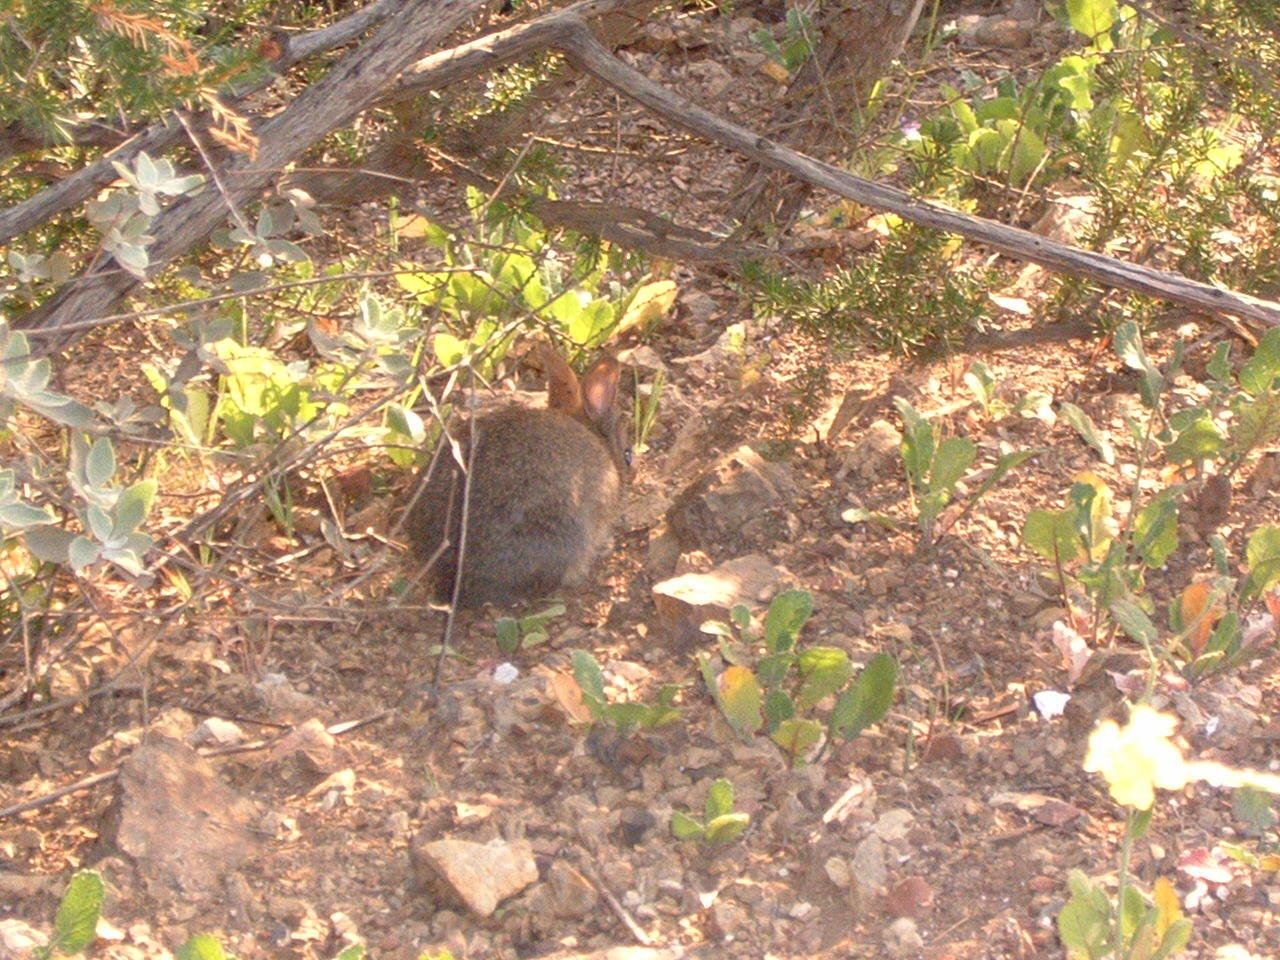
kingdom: Animalia
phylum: Chordata
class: Mammalia
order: Lagomorpha
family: Leporidae
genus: Sylvilagus
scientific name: Sylvilagus bachmani
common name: Brush rabbit
